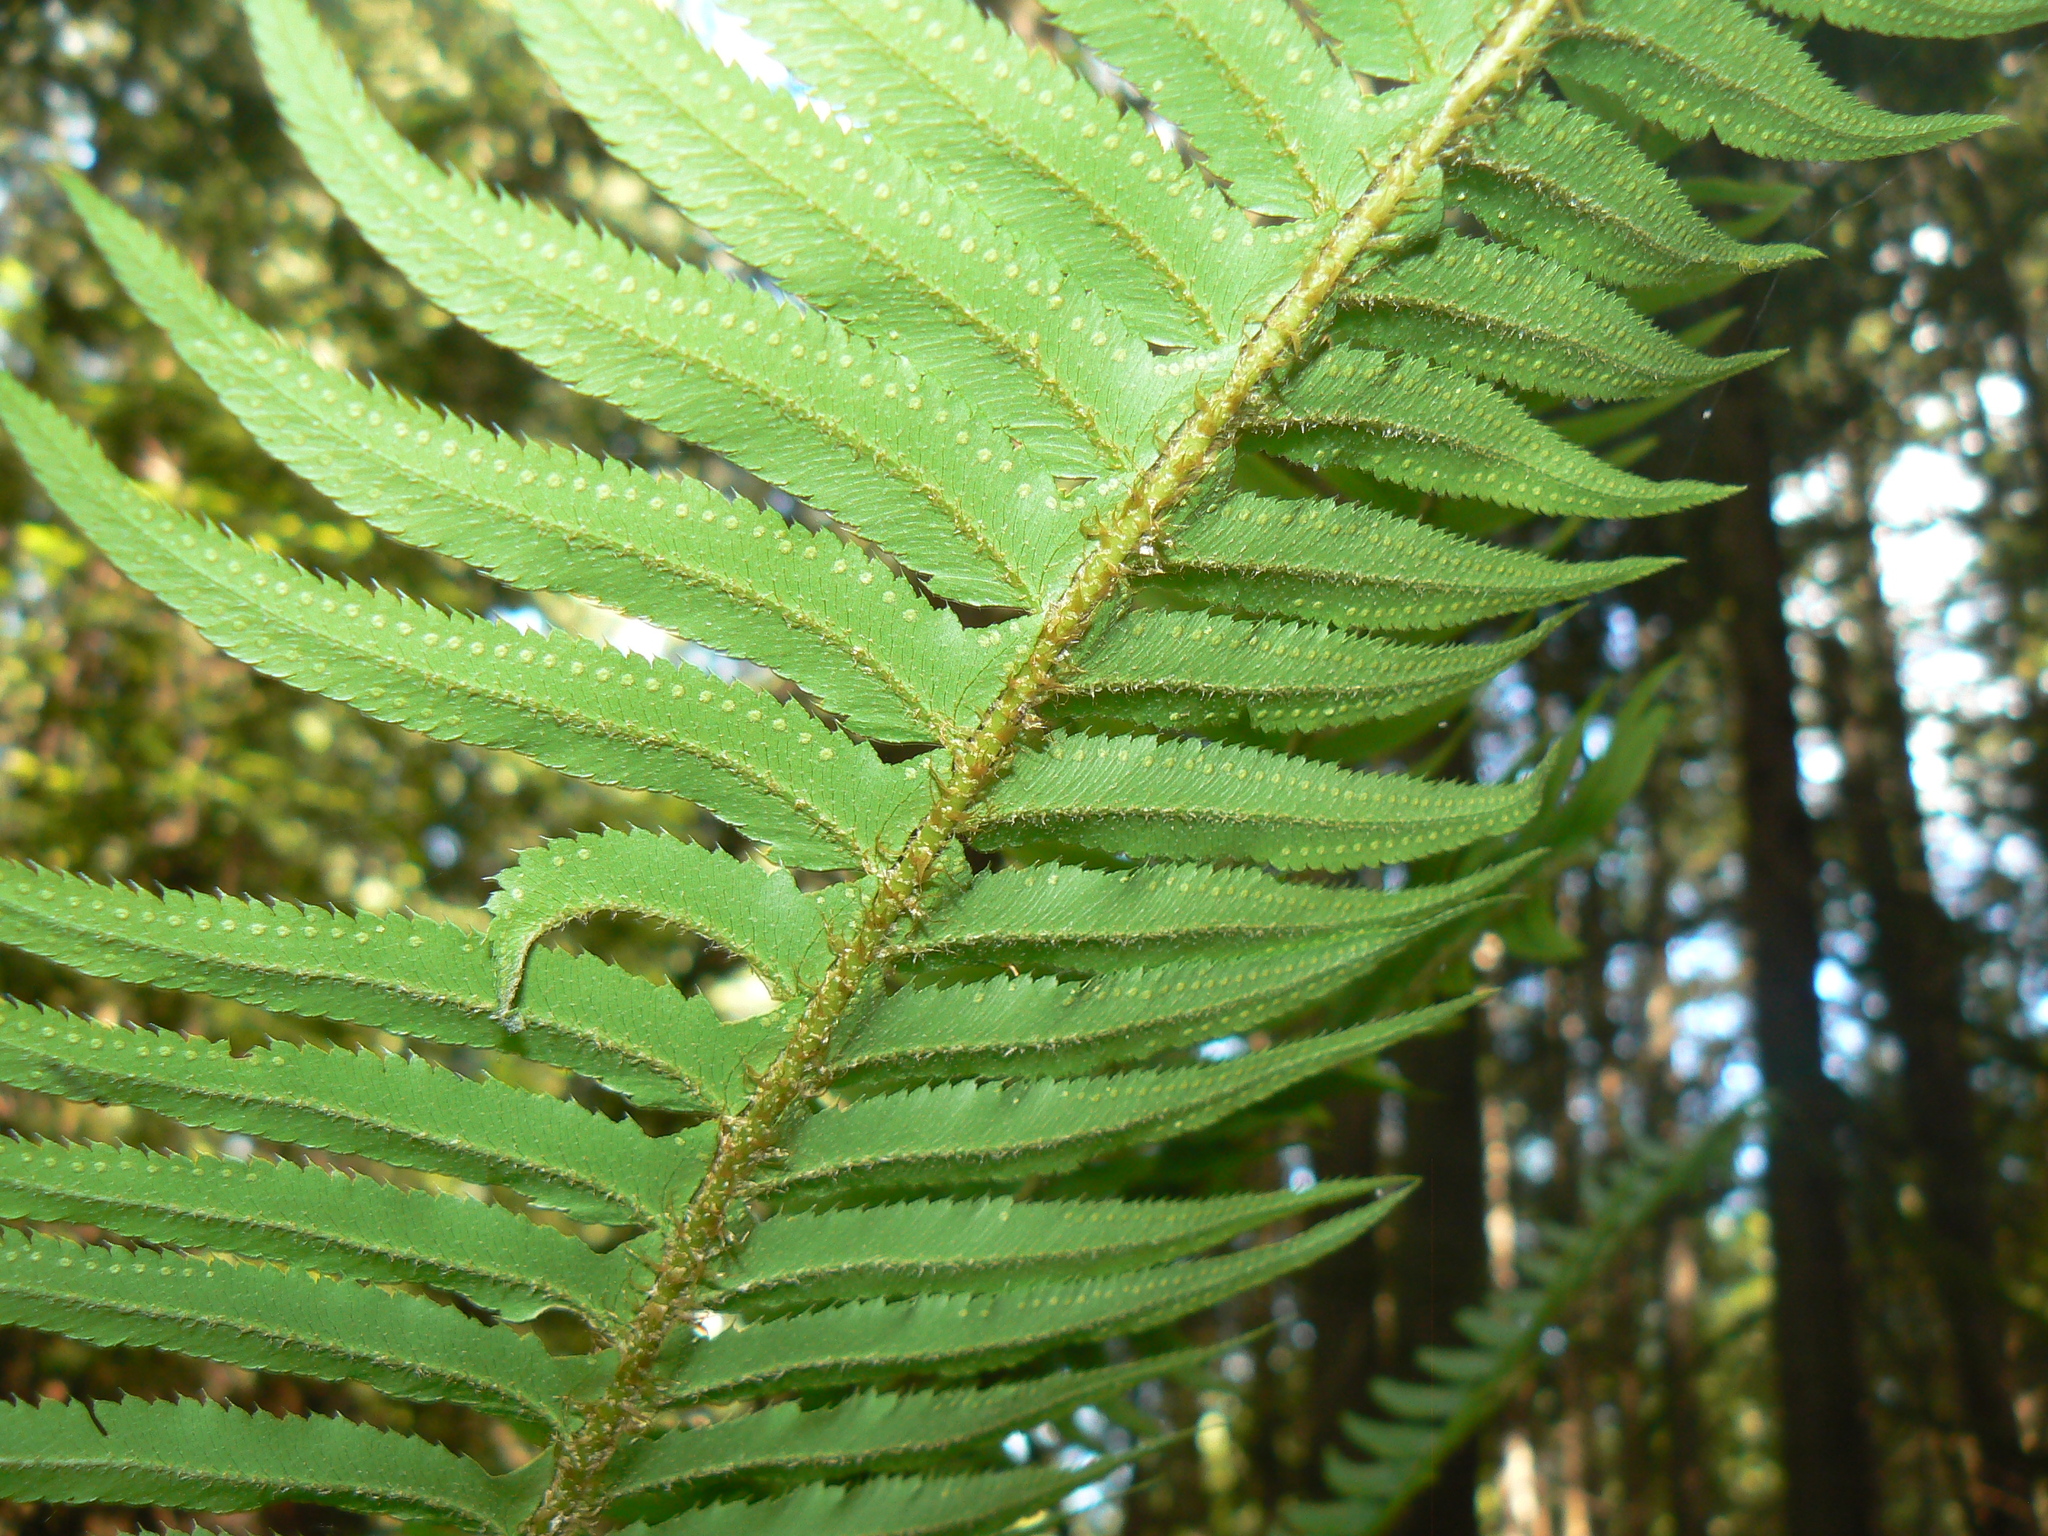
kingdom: Plantae
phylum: Tracheophyta
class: Polypodiopsida
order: Polypodiales
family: Dryopteridaceae
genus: Polystichum
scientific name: Polystichum munitum
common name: Western sword-fern
